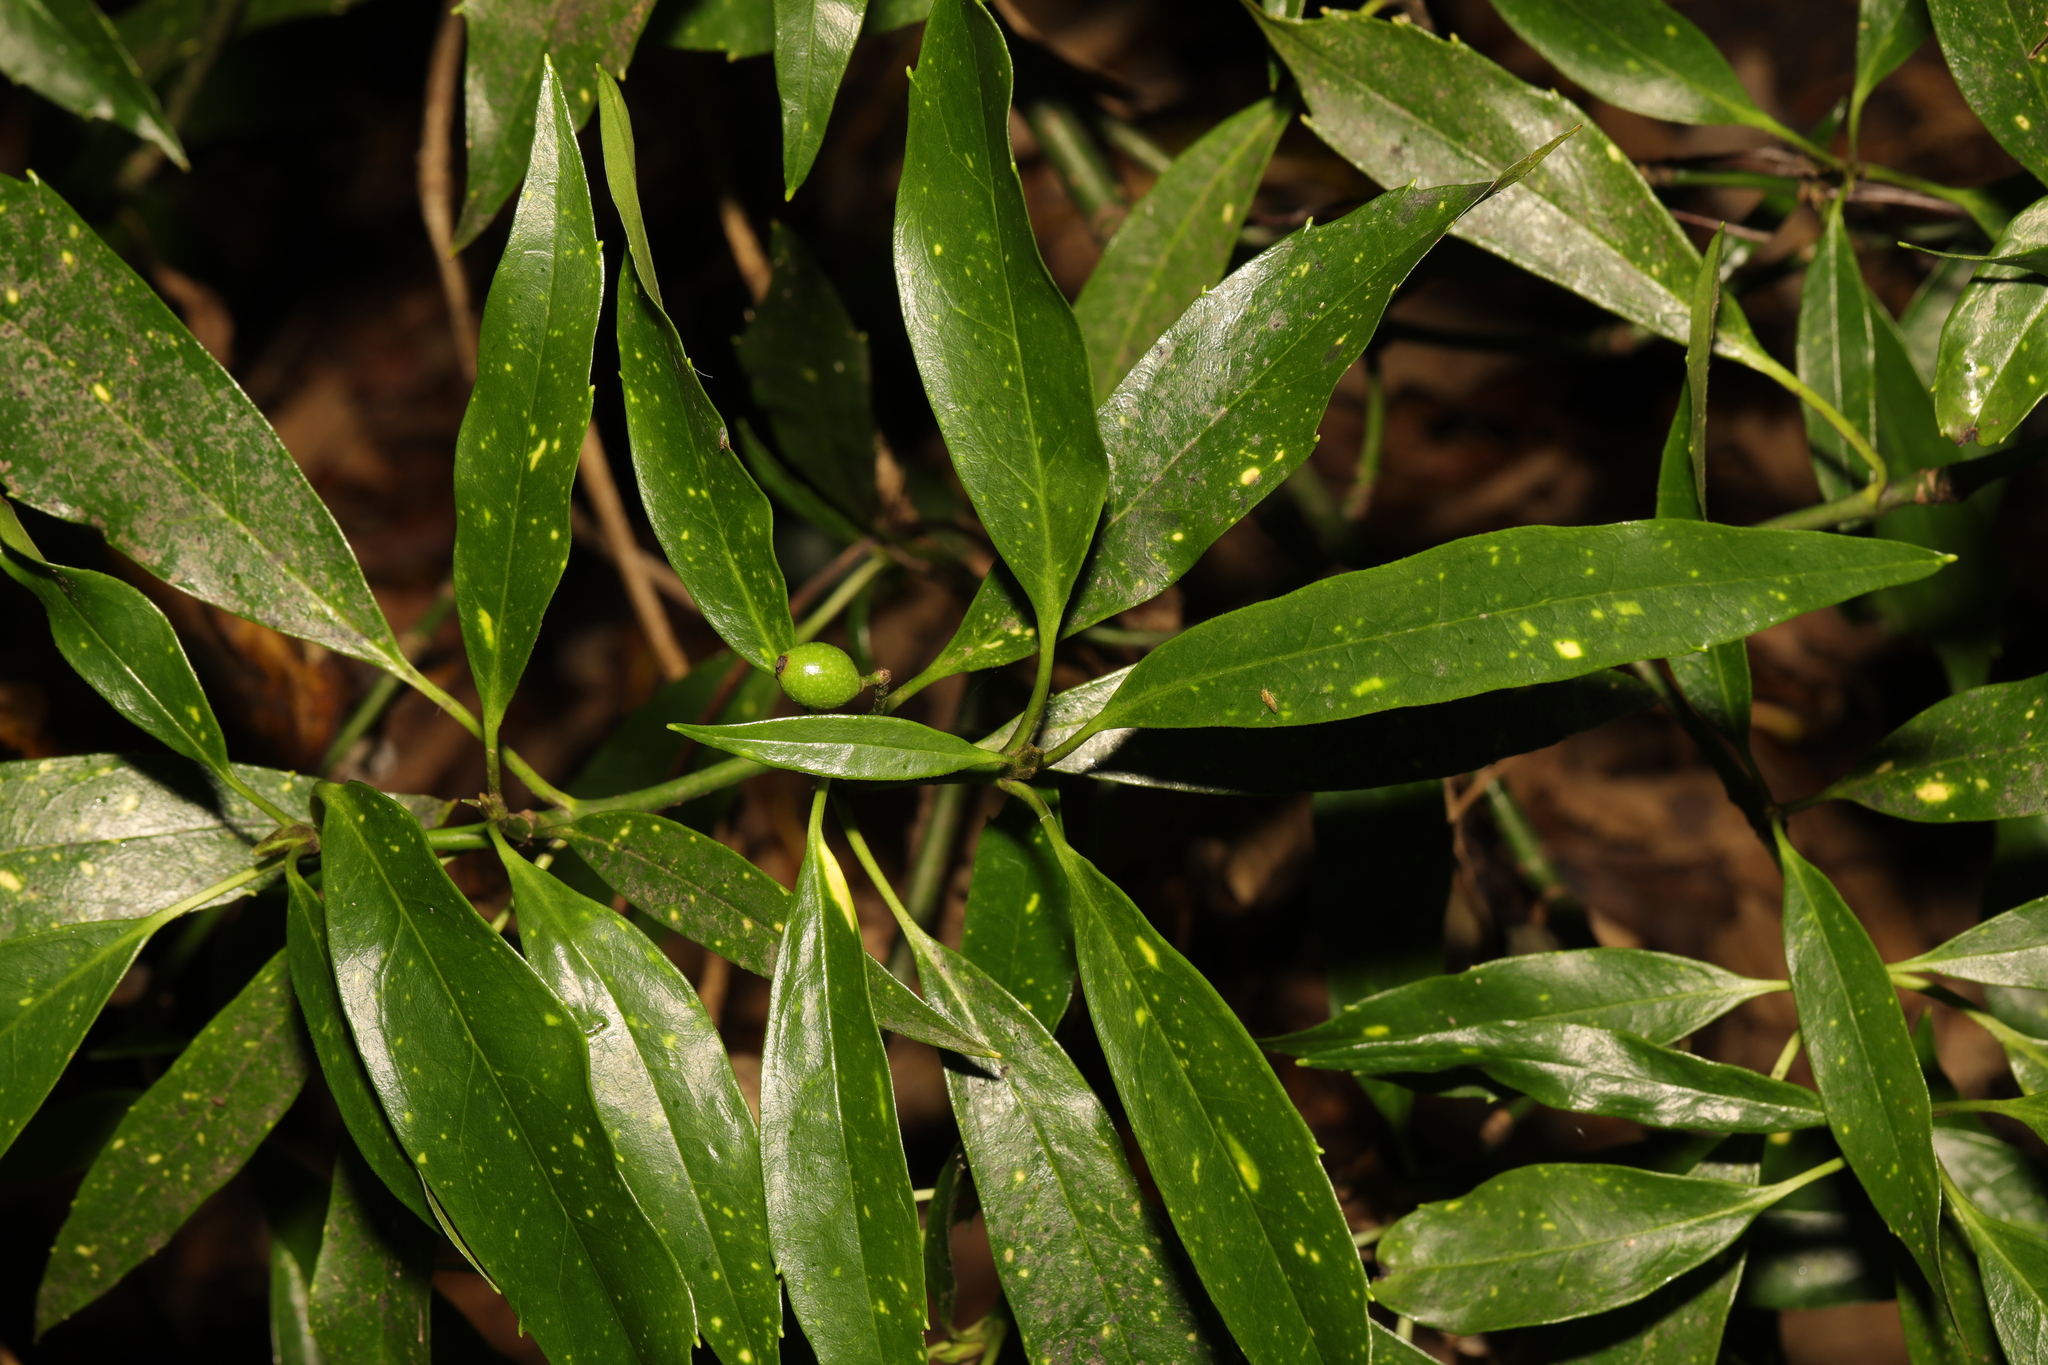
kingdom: Plantae
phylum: Tracheophyta
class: Magnoliopsida
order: Garryales
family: Garryaceae
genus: Aucuba
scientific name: Aucuba japonica
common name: Spotted-laurel
